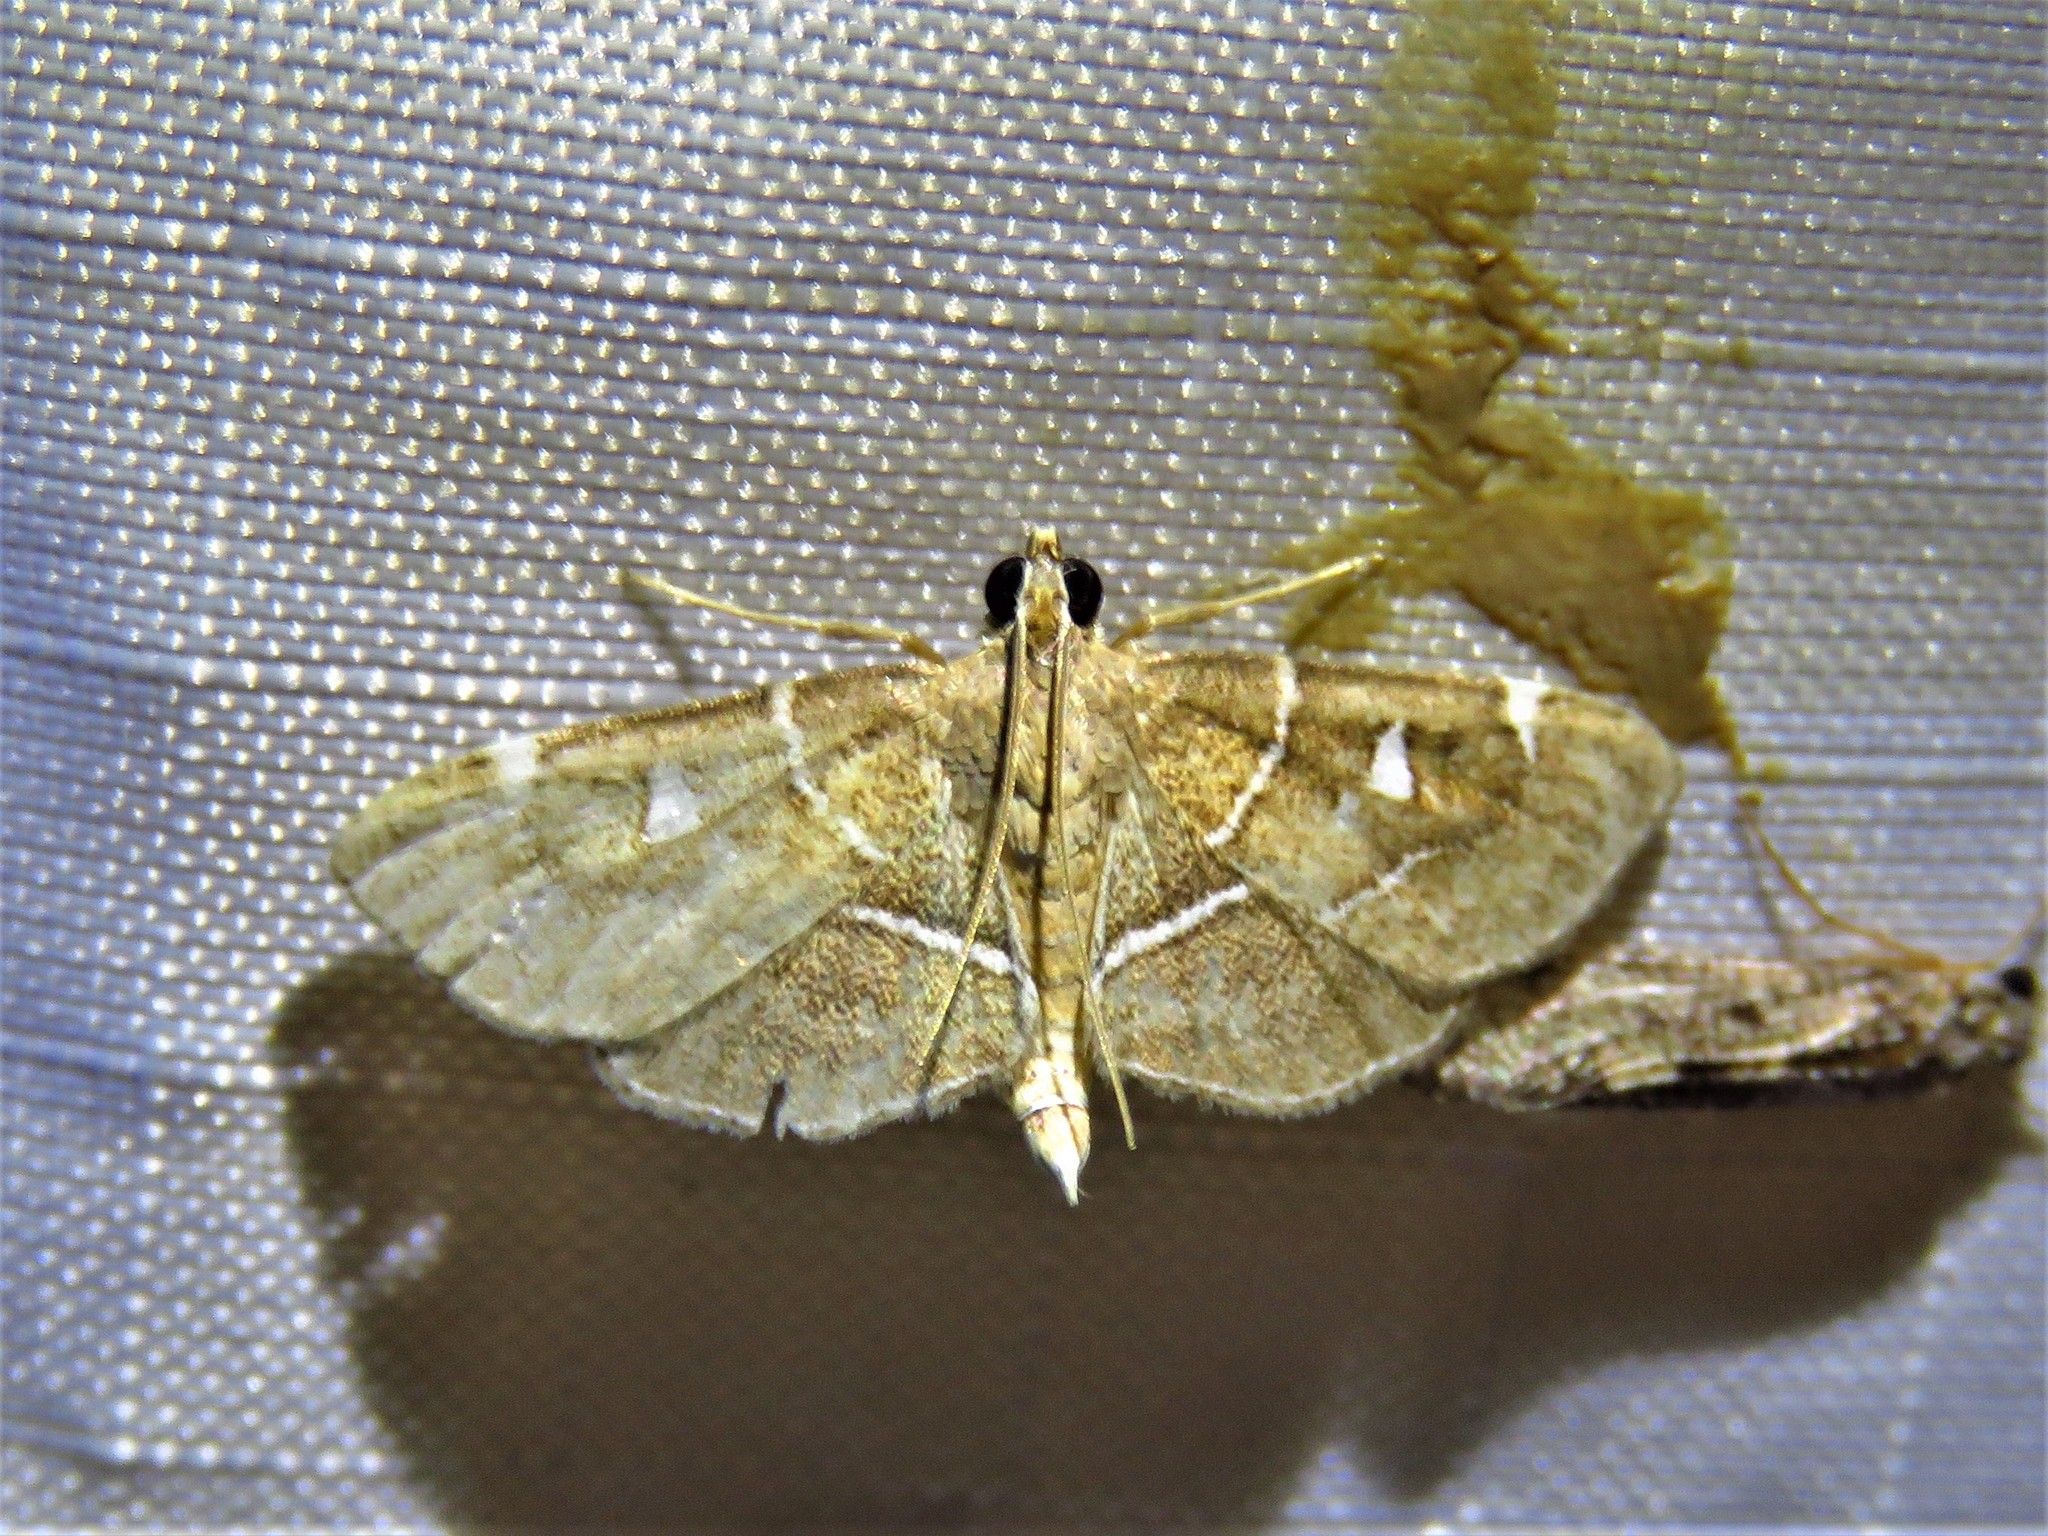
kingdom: Animalia
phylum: Arthropoda
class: Insecta
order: Lepidoptera
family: Crambidae
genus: Lamprosema
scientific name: Lamprosema victoriae
